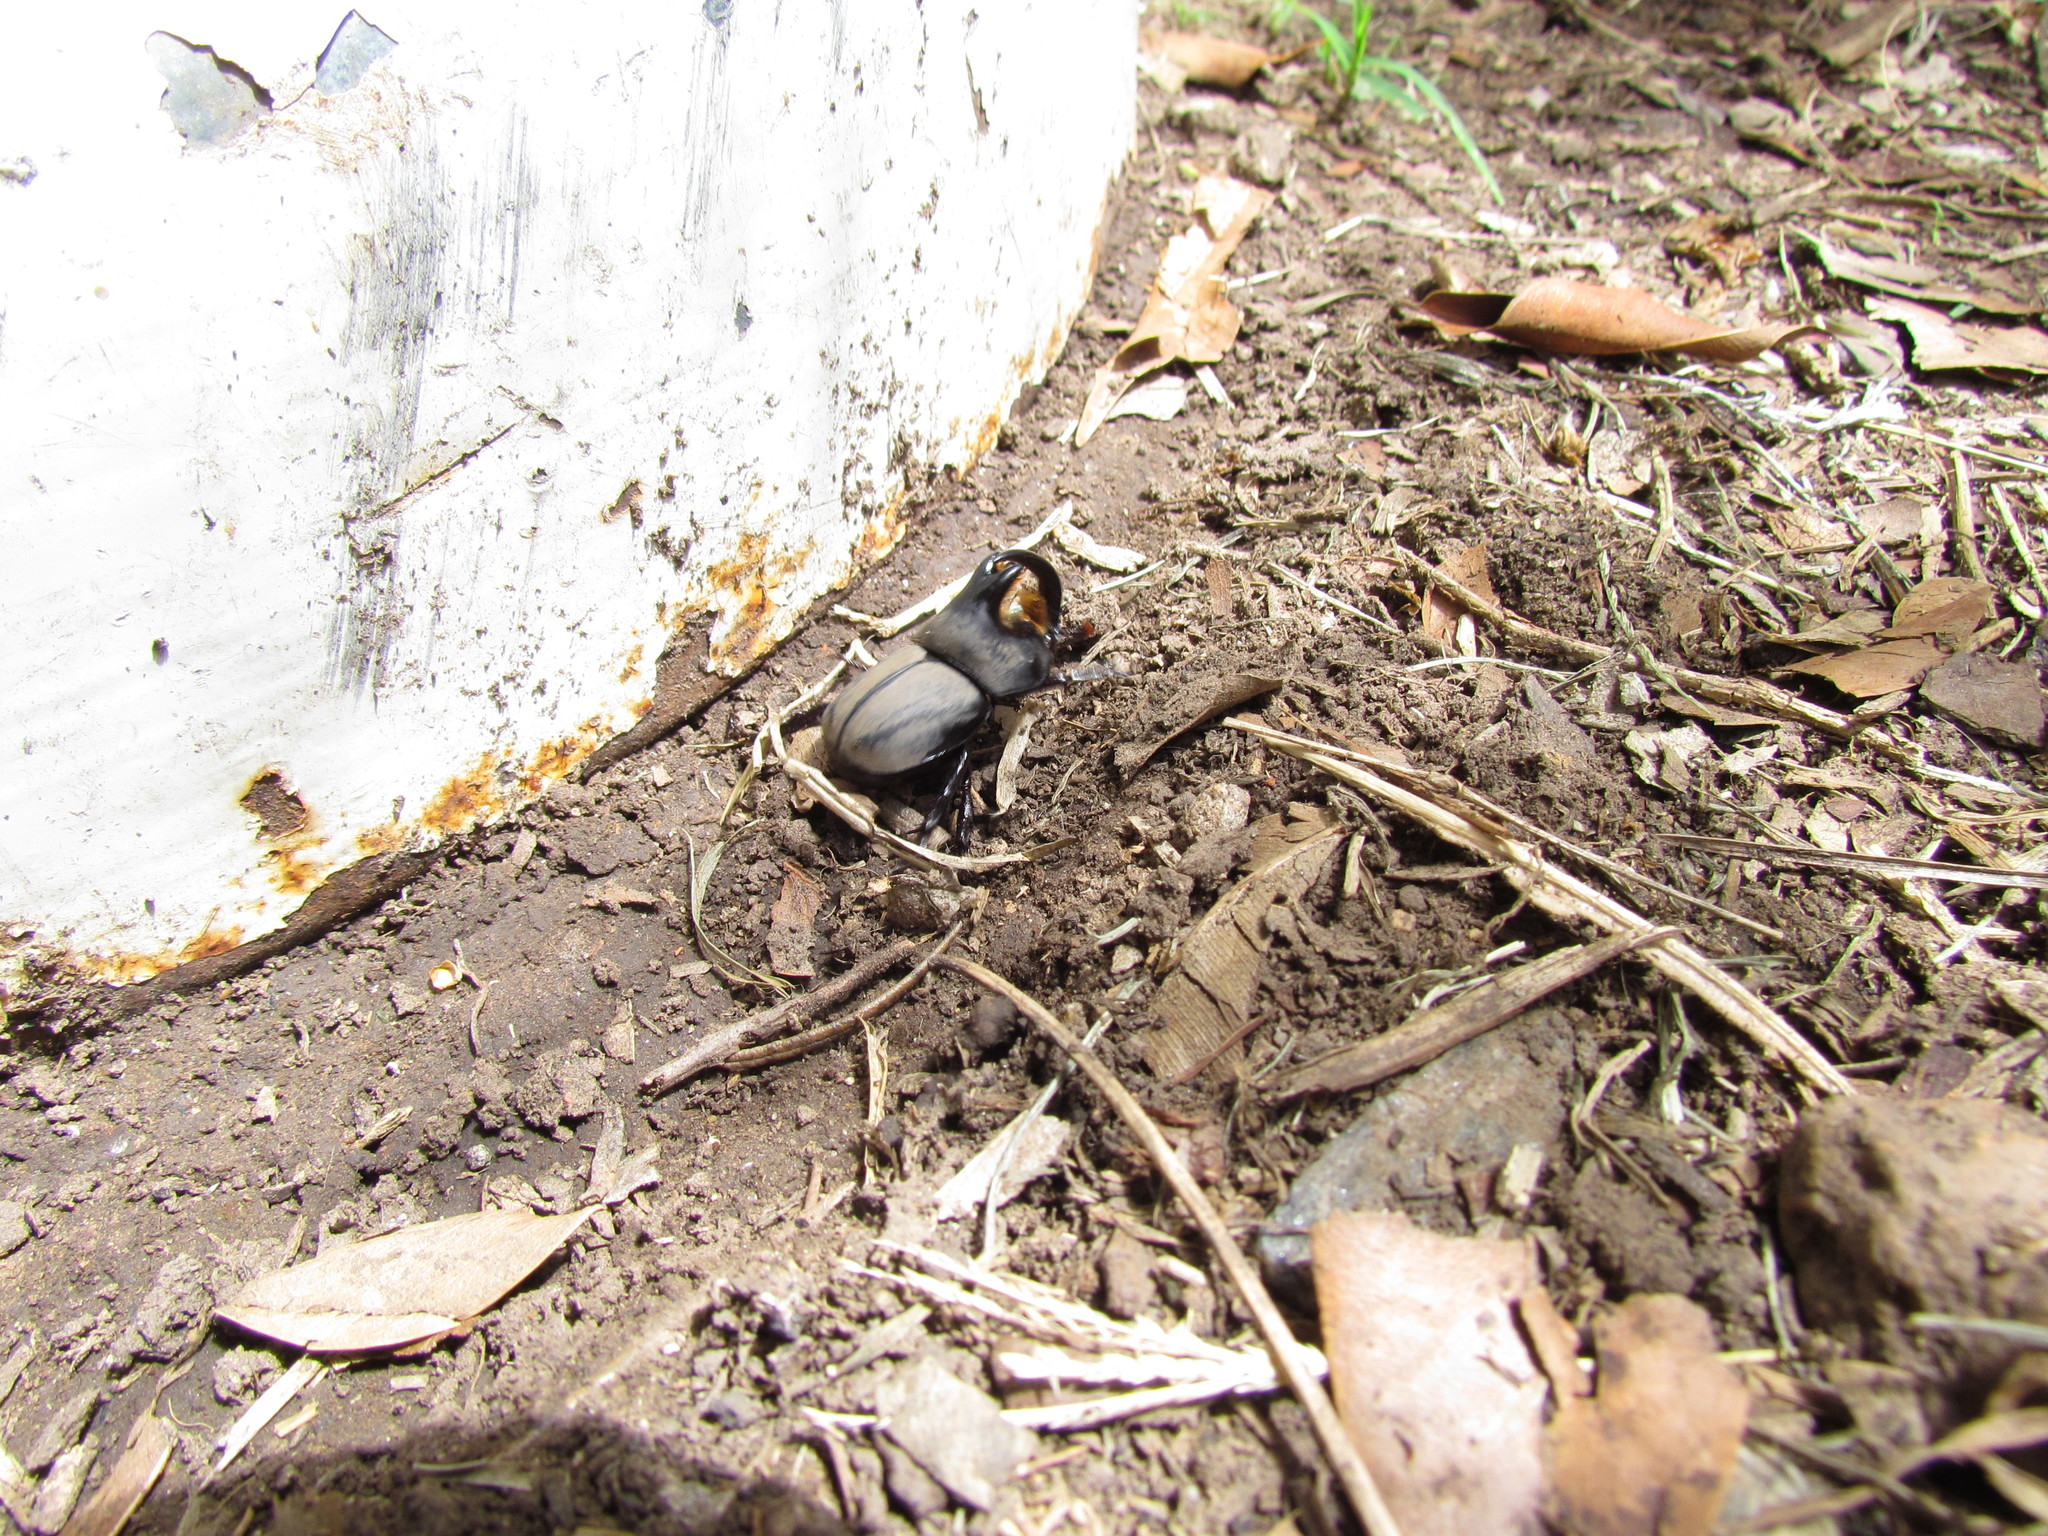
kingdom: Animalia
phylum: Arthropoda
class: Insecta
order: Coleoptera
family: Scarabaeidae
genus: Diloboderus
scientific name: Diloboderus abderus
